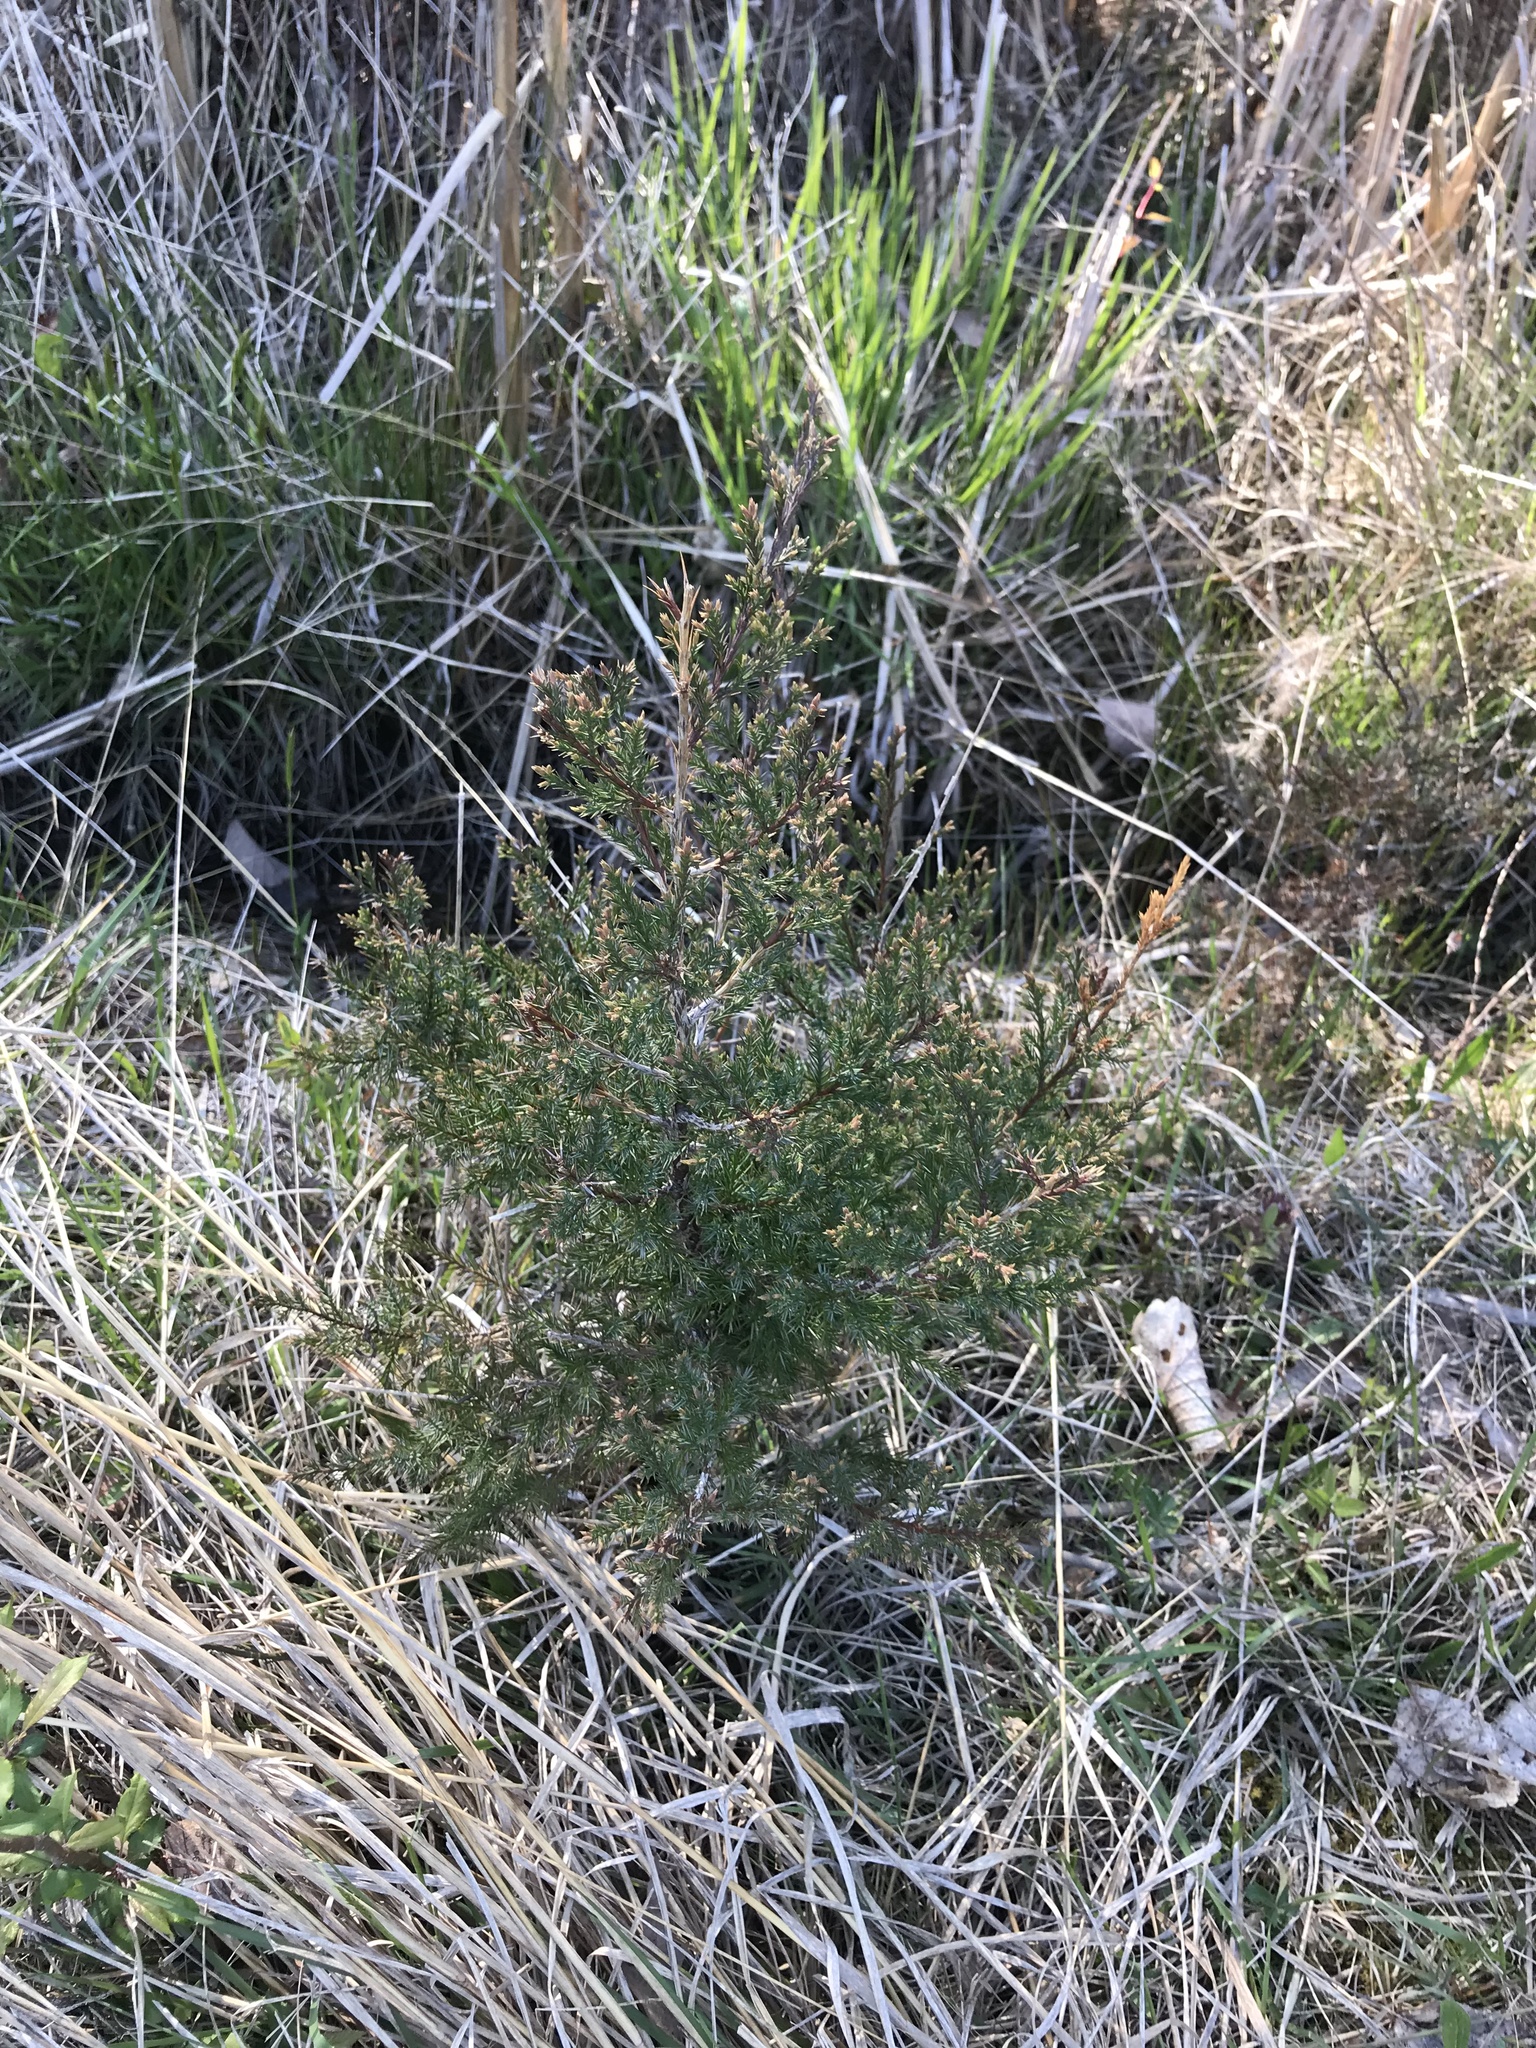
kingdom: Plantae
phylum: Tracheophyta
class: Pinopsida
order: Pinales
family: Cupressaceae
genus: Juniperus
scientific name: Juniperus virginiana
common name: Red juniper
